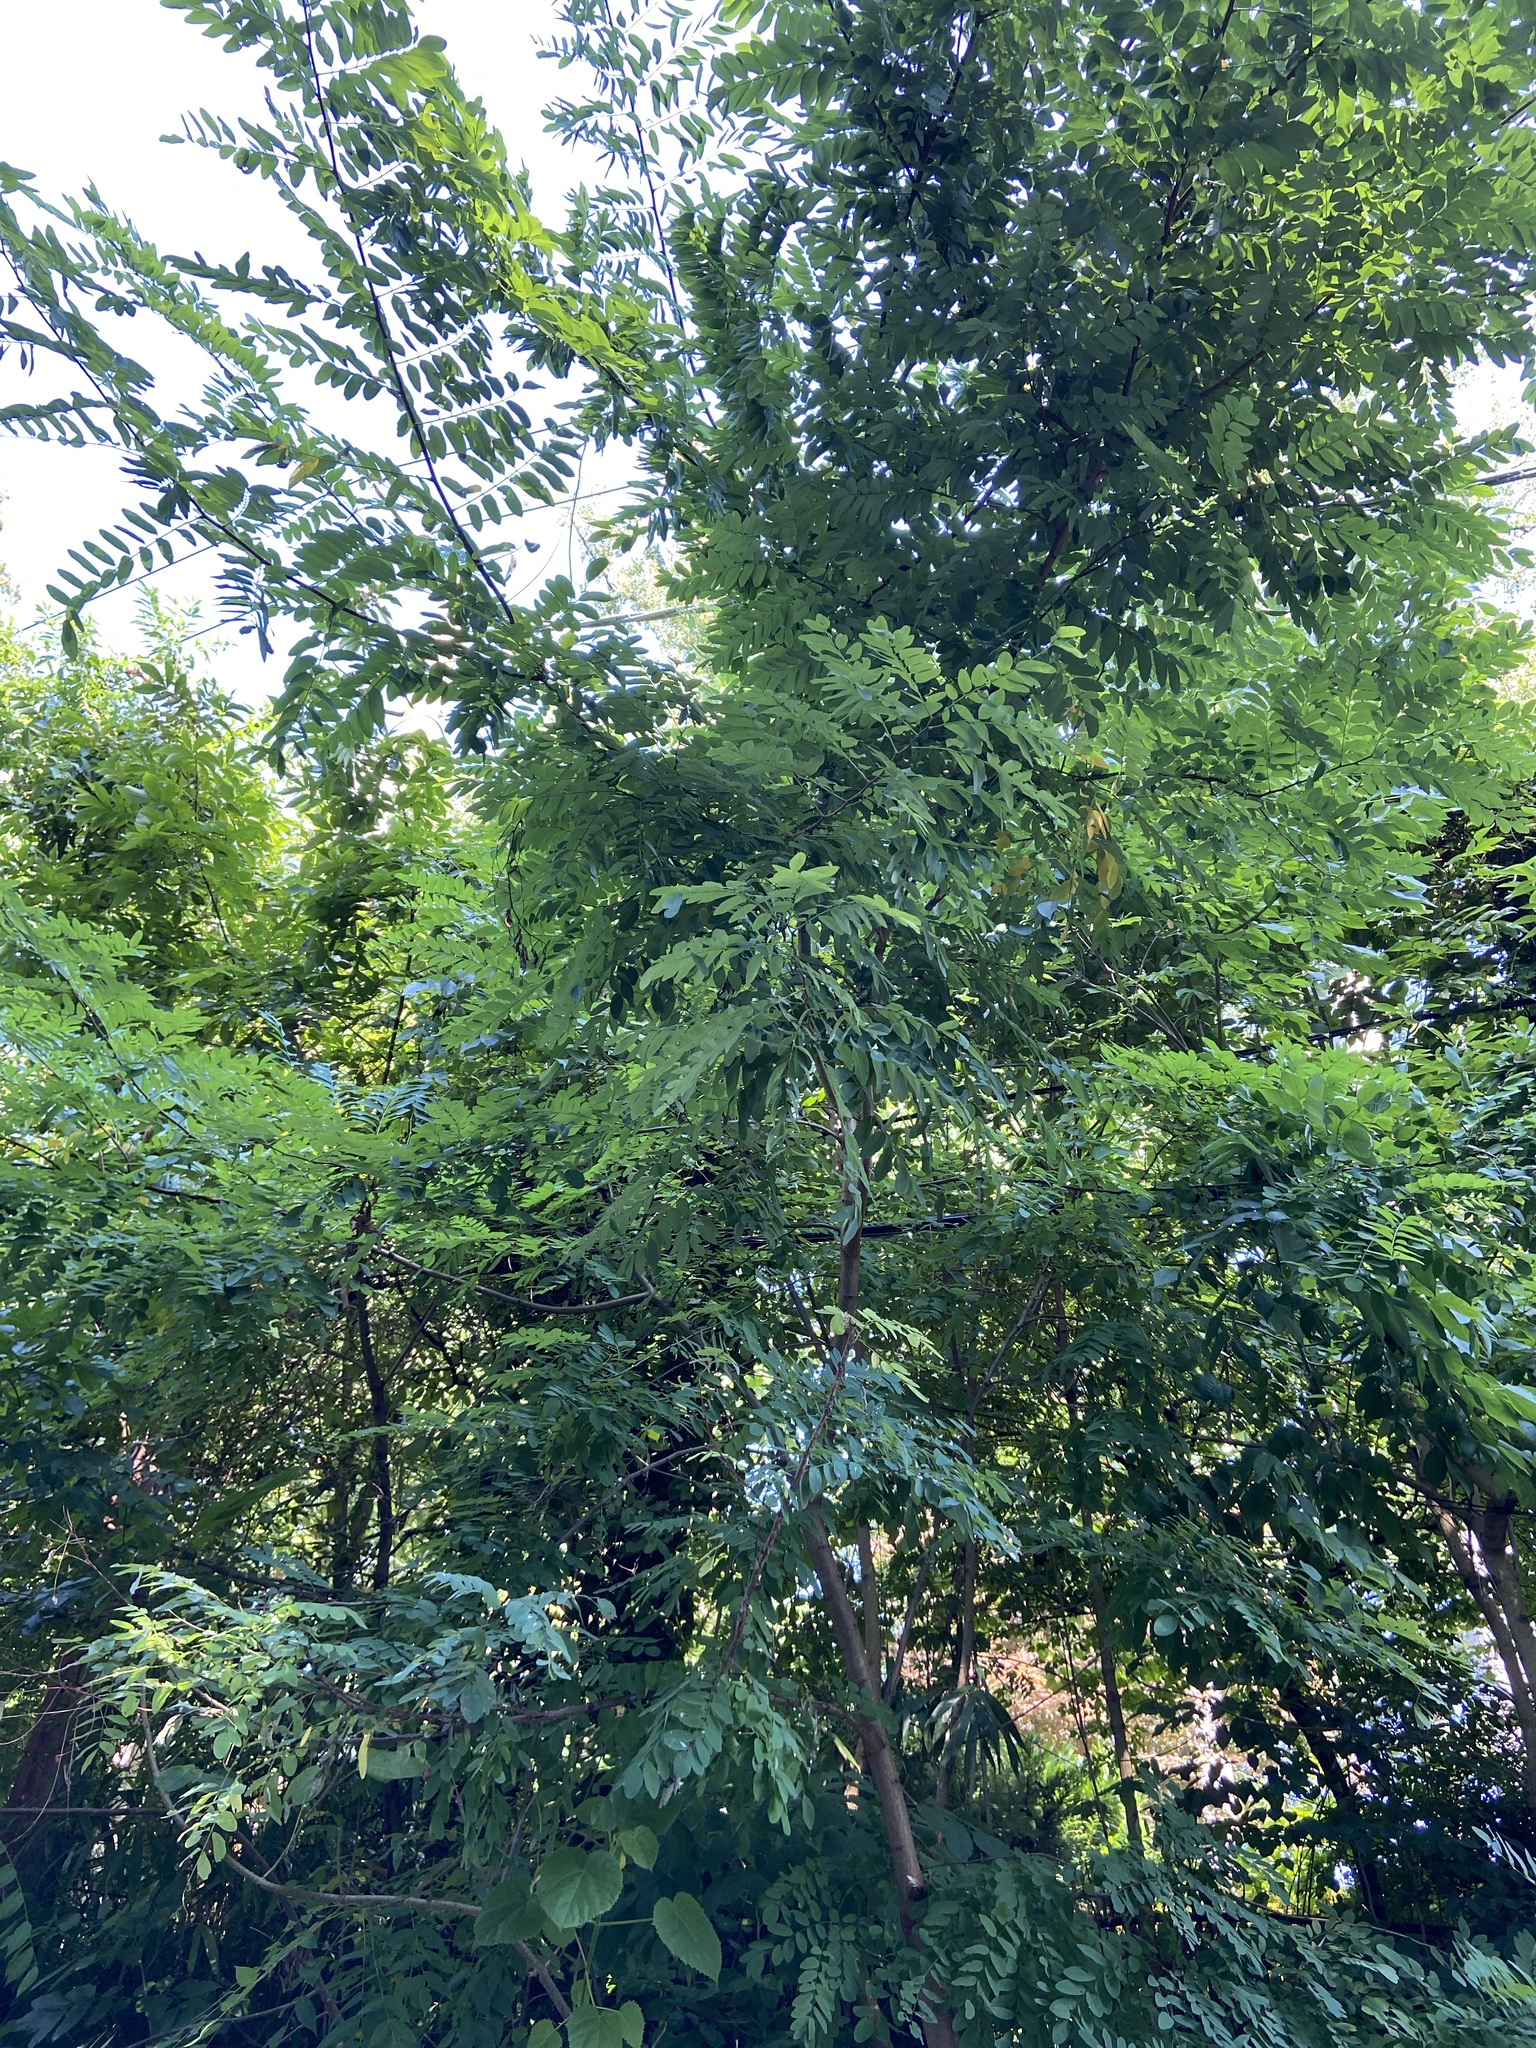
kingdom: Plantae
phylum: Tracheophyta
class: Magnoliopsida
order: Fabales
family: Fabaceae
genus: Robinia
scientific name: Robinia pseudoacacia
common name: Black locust
